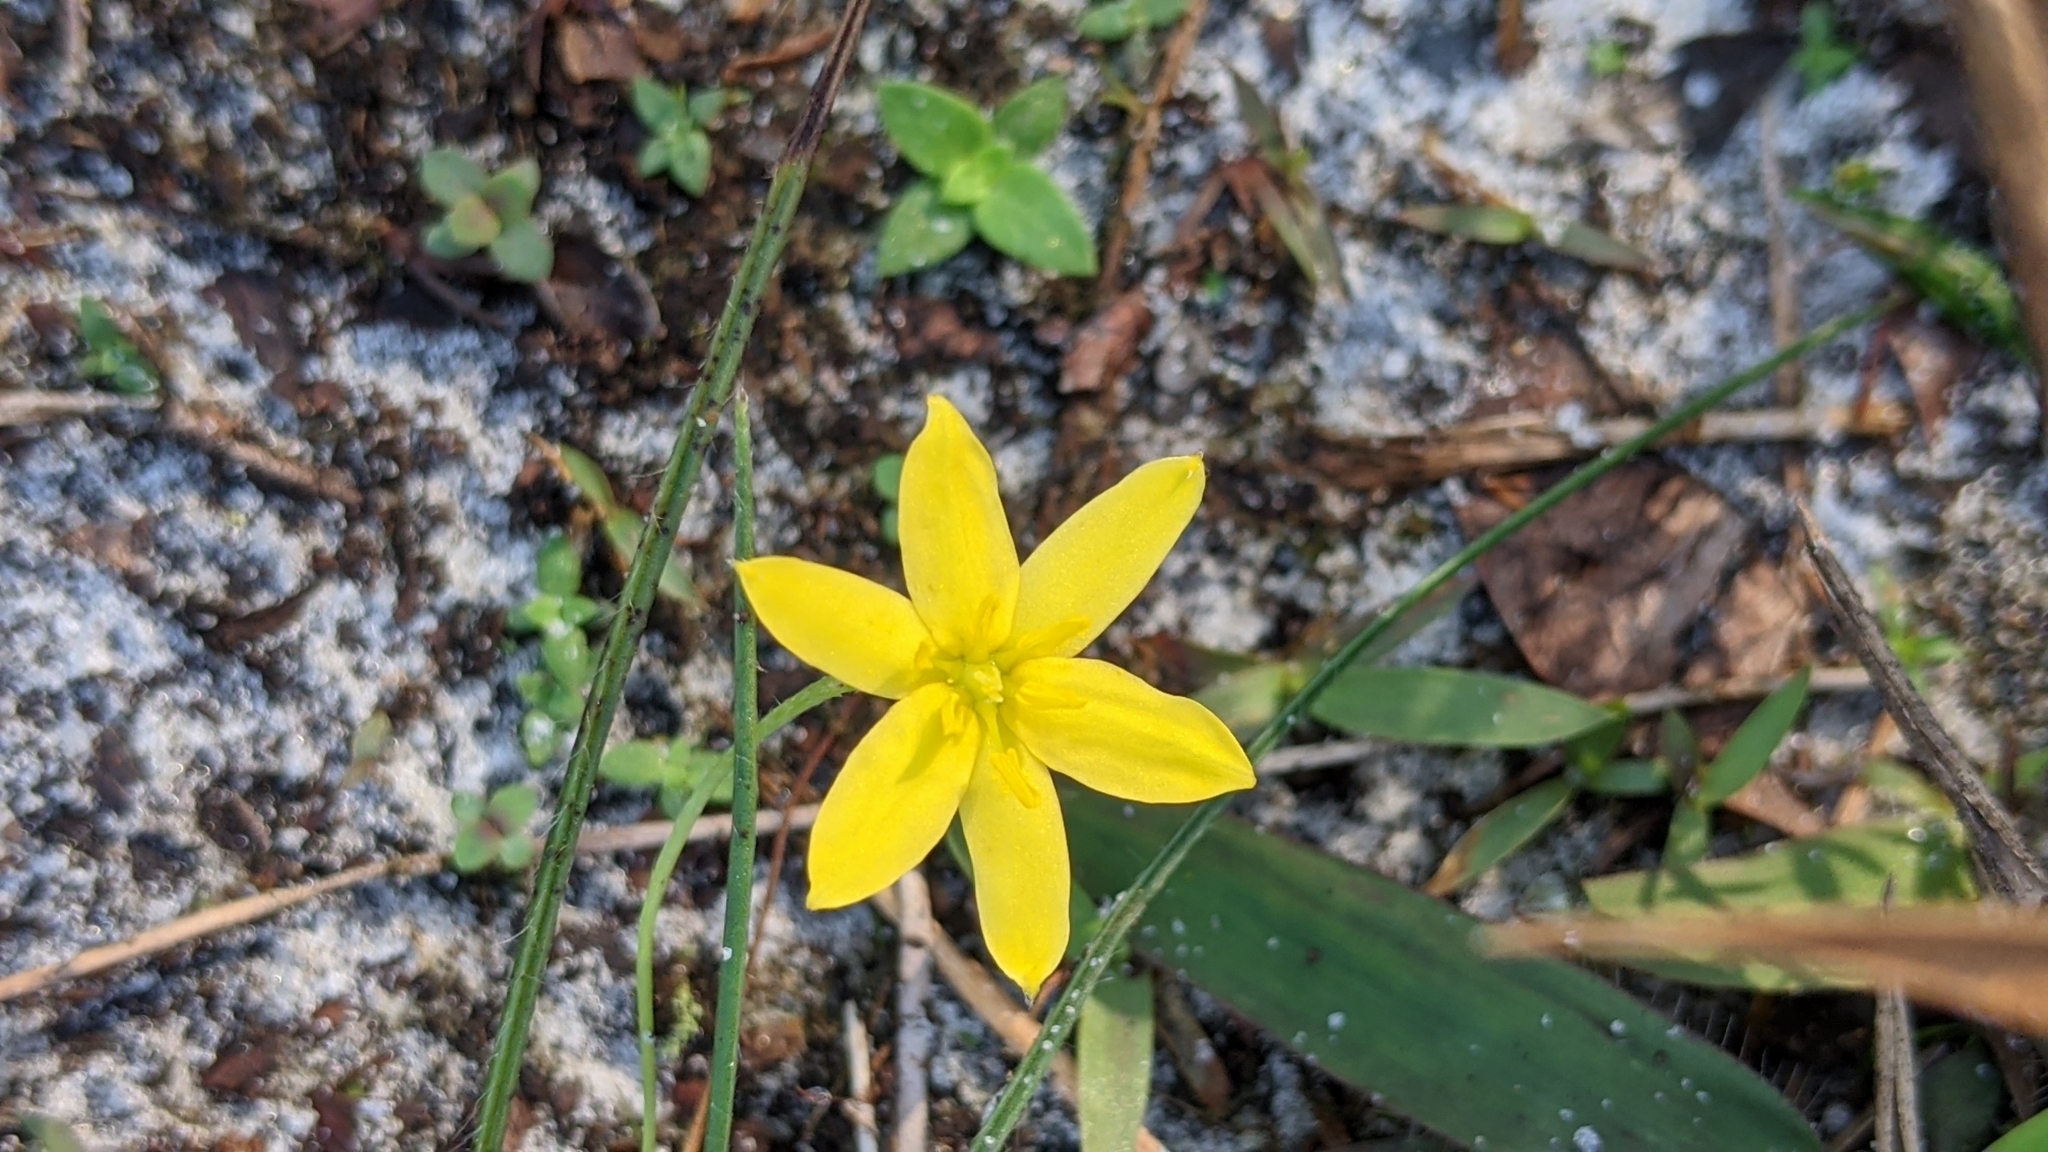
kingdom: Plantae
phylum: Tracheophyta
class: Liliopsida
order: Asparagales
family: Hypoxidaceae
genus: Hypoxis
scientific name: Hypoxis juncea
